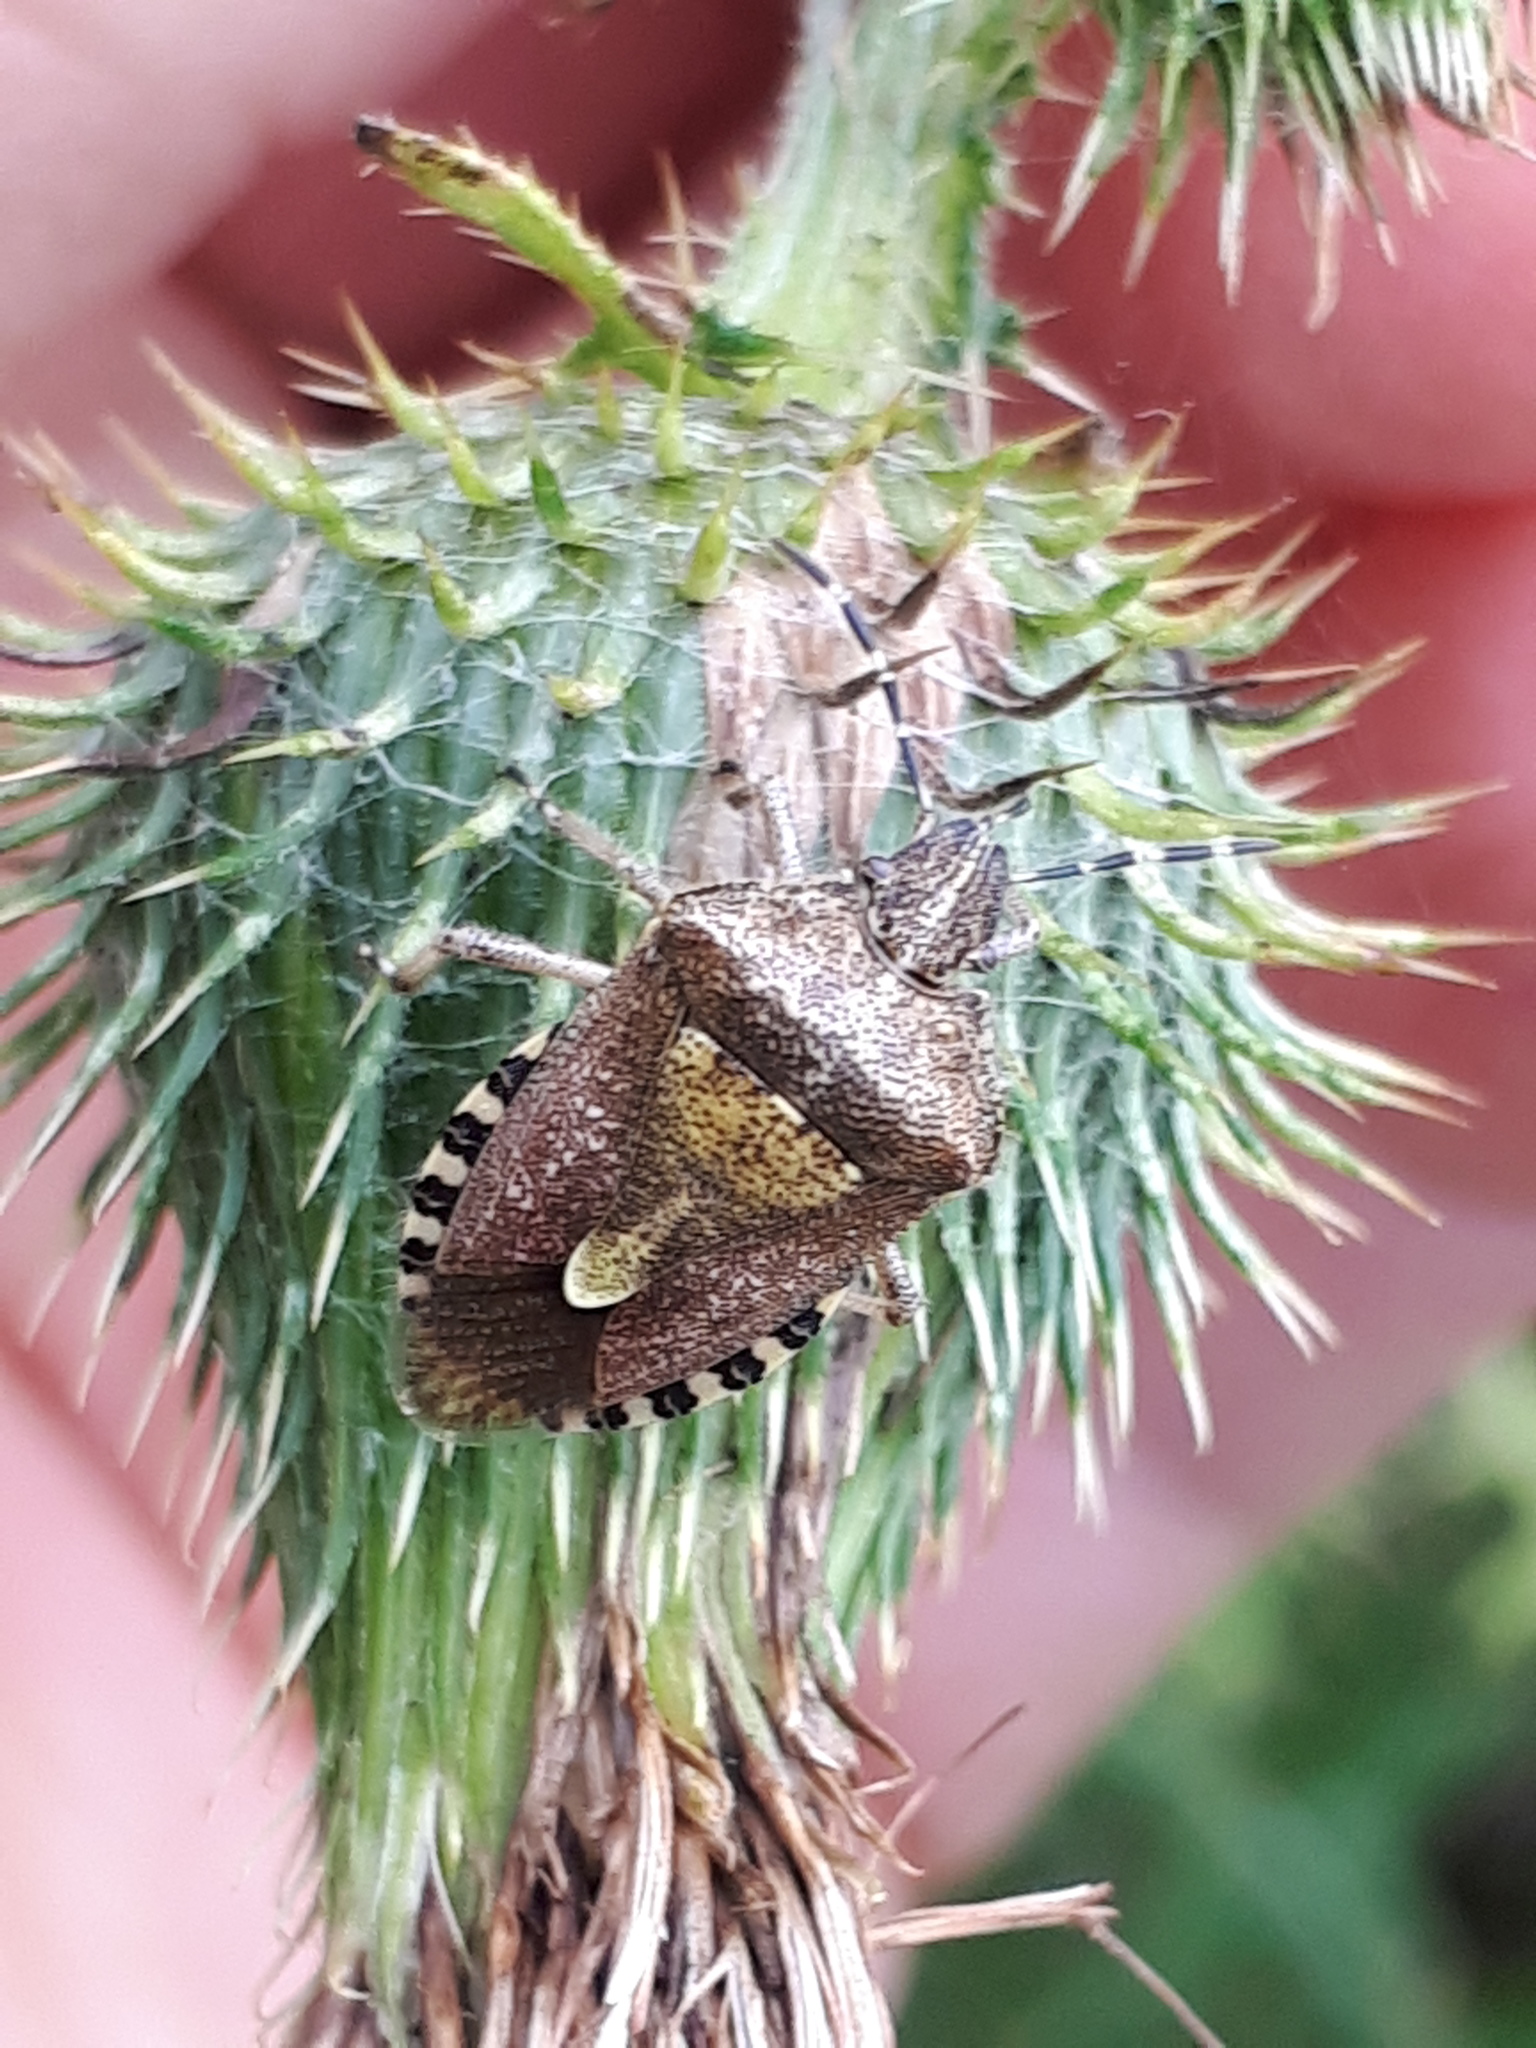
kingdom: Animalia
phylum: Arthropoda
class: Insecta
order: Hemiptera
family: Pentatomidae
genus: Dolycoris
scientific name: Dolycoris baccarum
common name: Sloe bug
